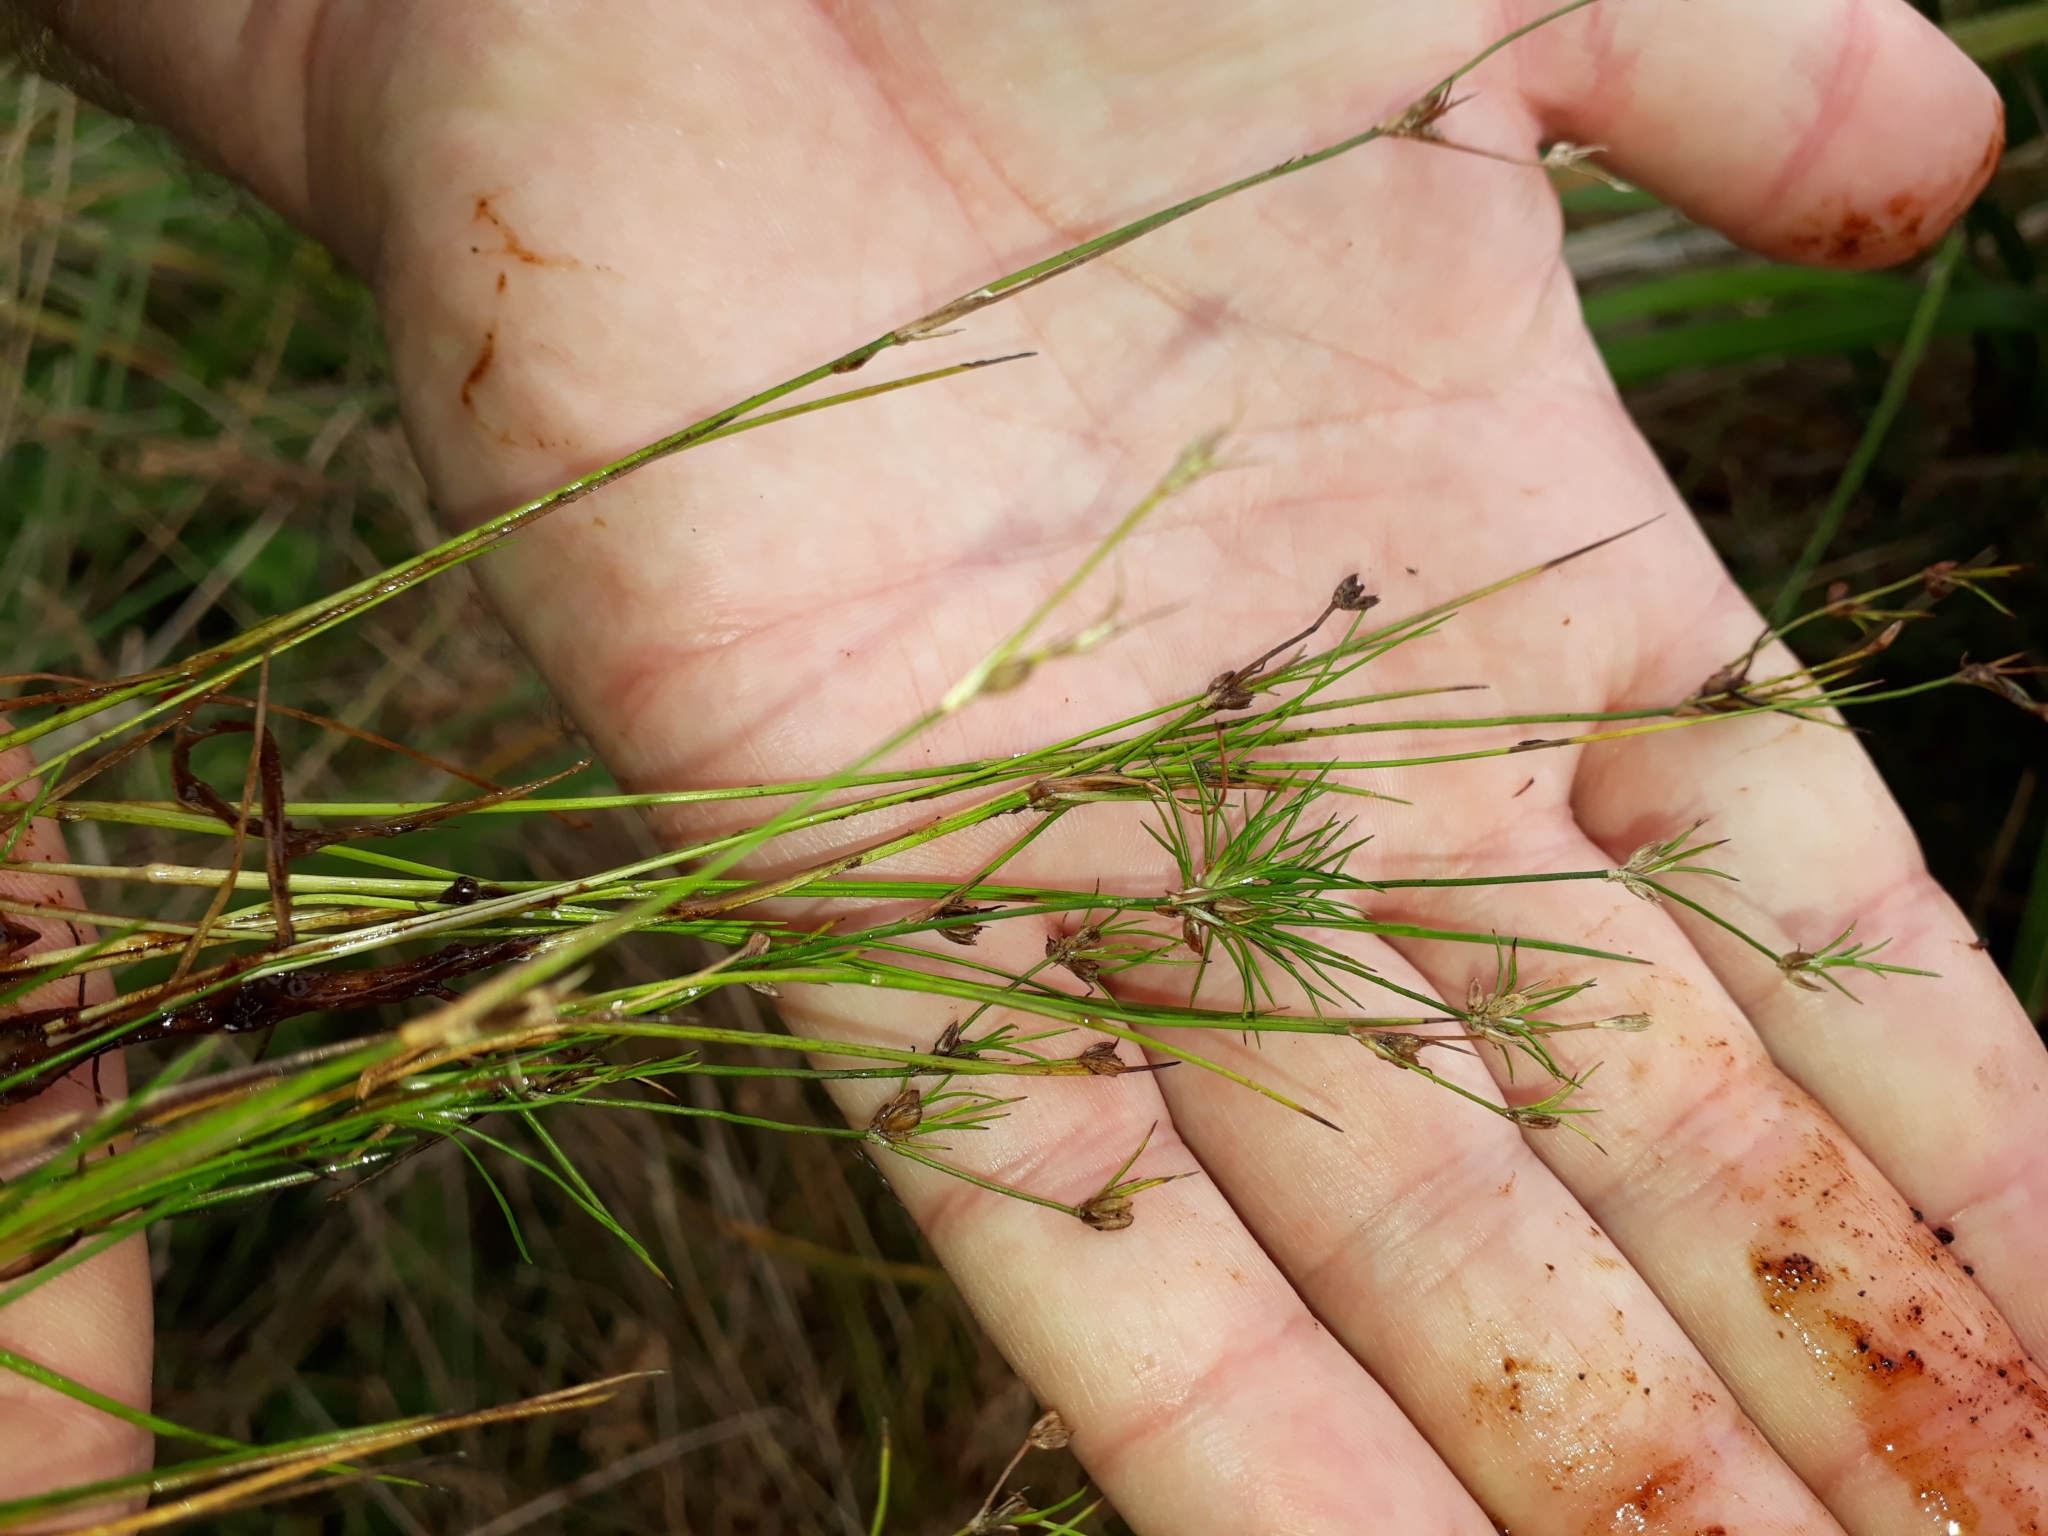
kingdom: Plantae
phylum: Tracheophyta
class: Liliopsida
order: Poales
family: Juncaceae
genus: Juncus
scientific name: Juncus bulbosus
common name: Bulbous rush
